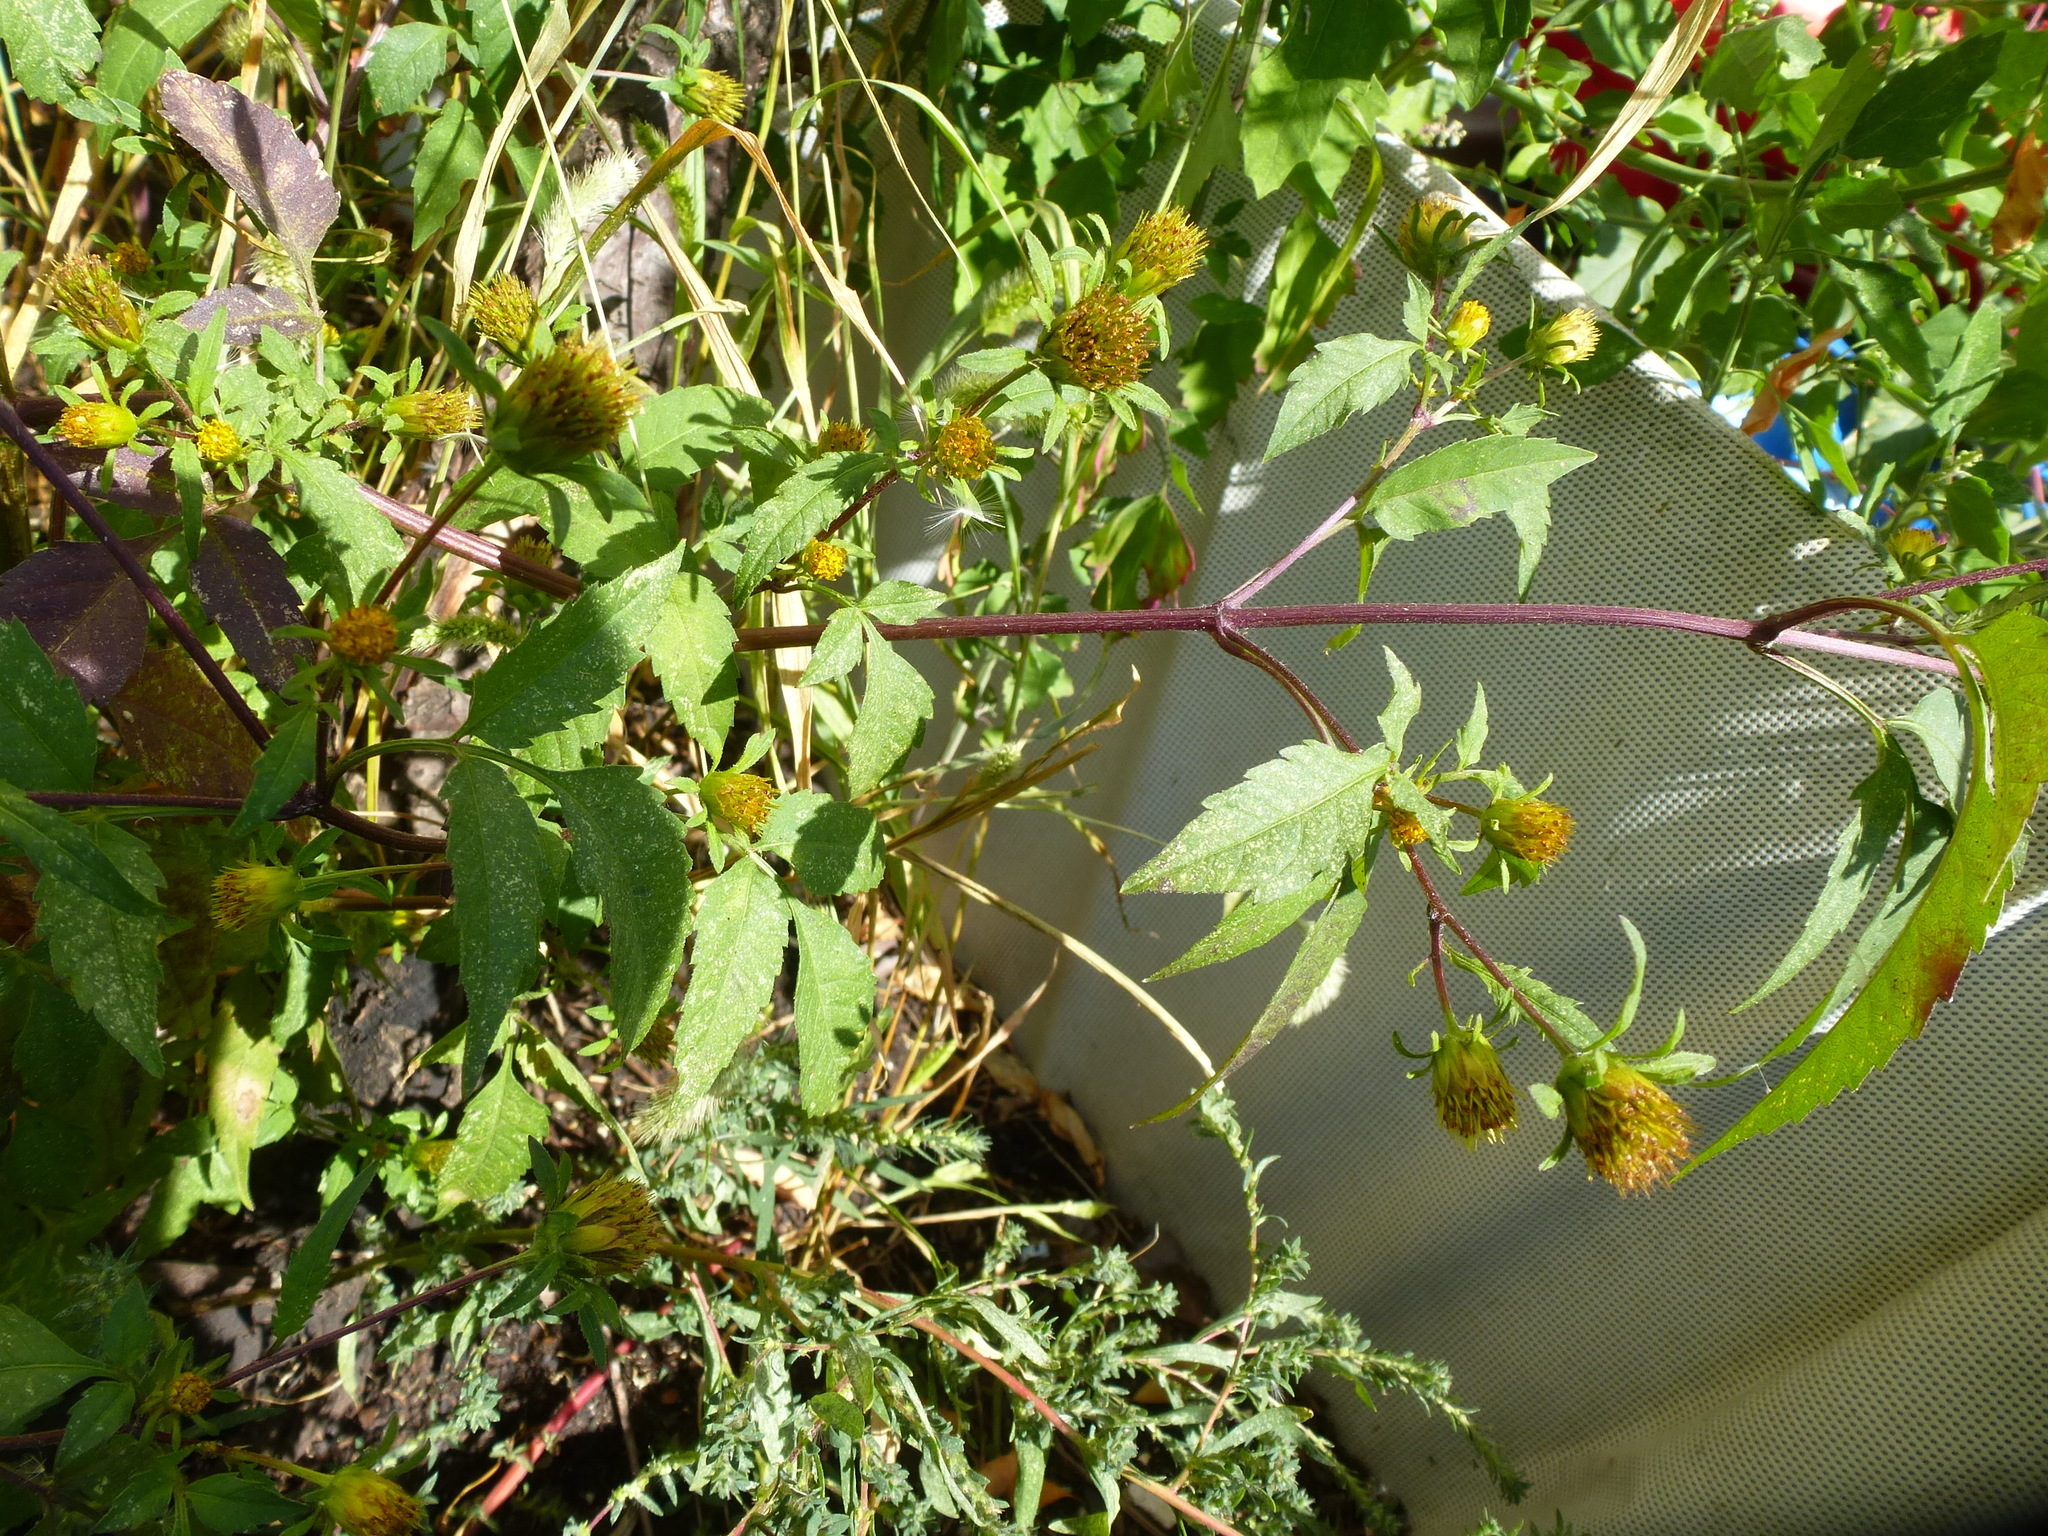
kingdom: Plantae
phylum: Tracheophyta
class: Magnoliopsida
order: Asterales
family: Asteraceae
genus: Bidens
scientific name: Bidens frondosa
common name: Beggarticks
